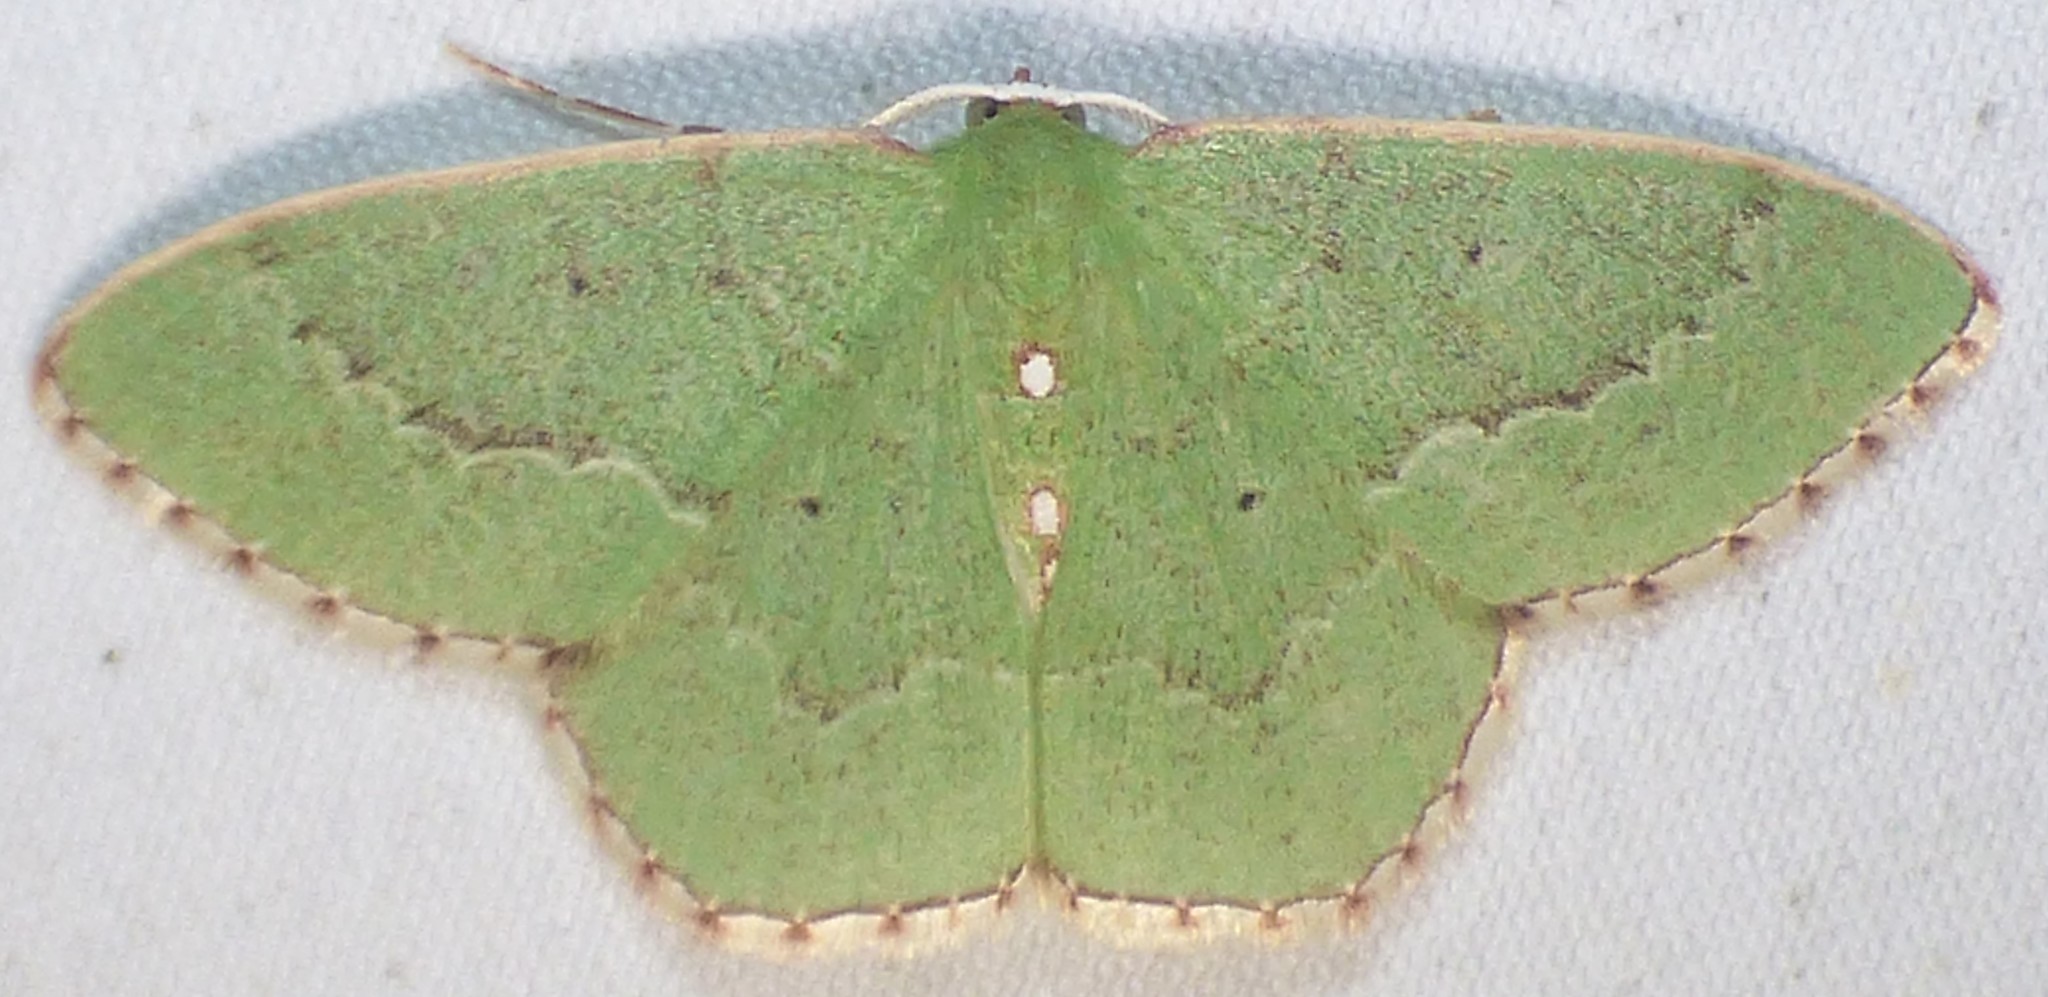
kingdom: Animalia
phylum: Arthropoda
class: Insecta
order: Lepidoptera
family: Geometridae
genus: Nemoria
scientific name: Nemoria lixaria
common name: Red-bordered emerald
